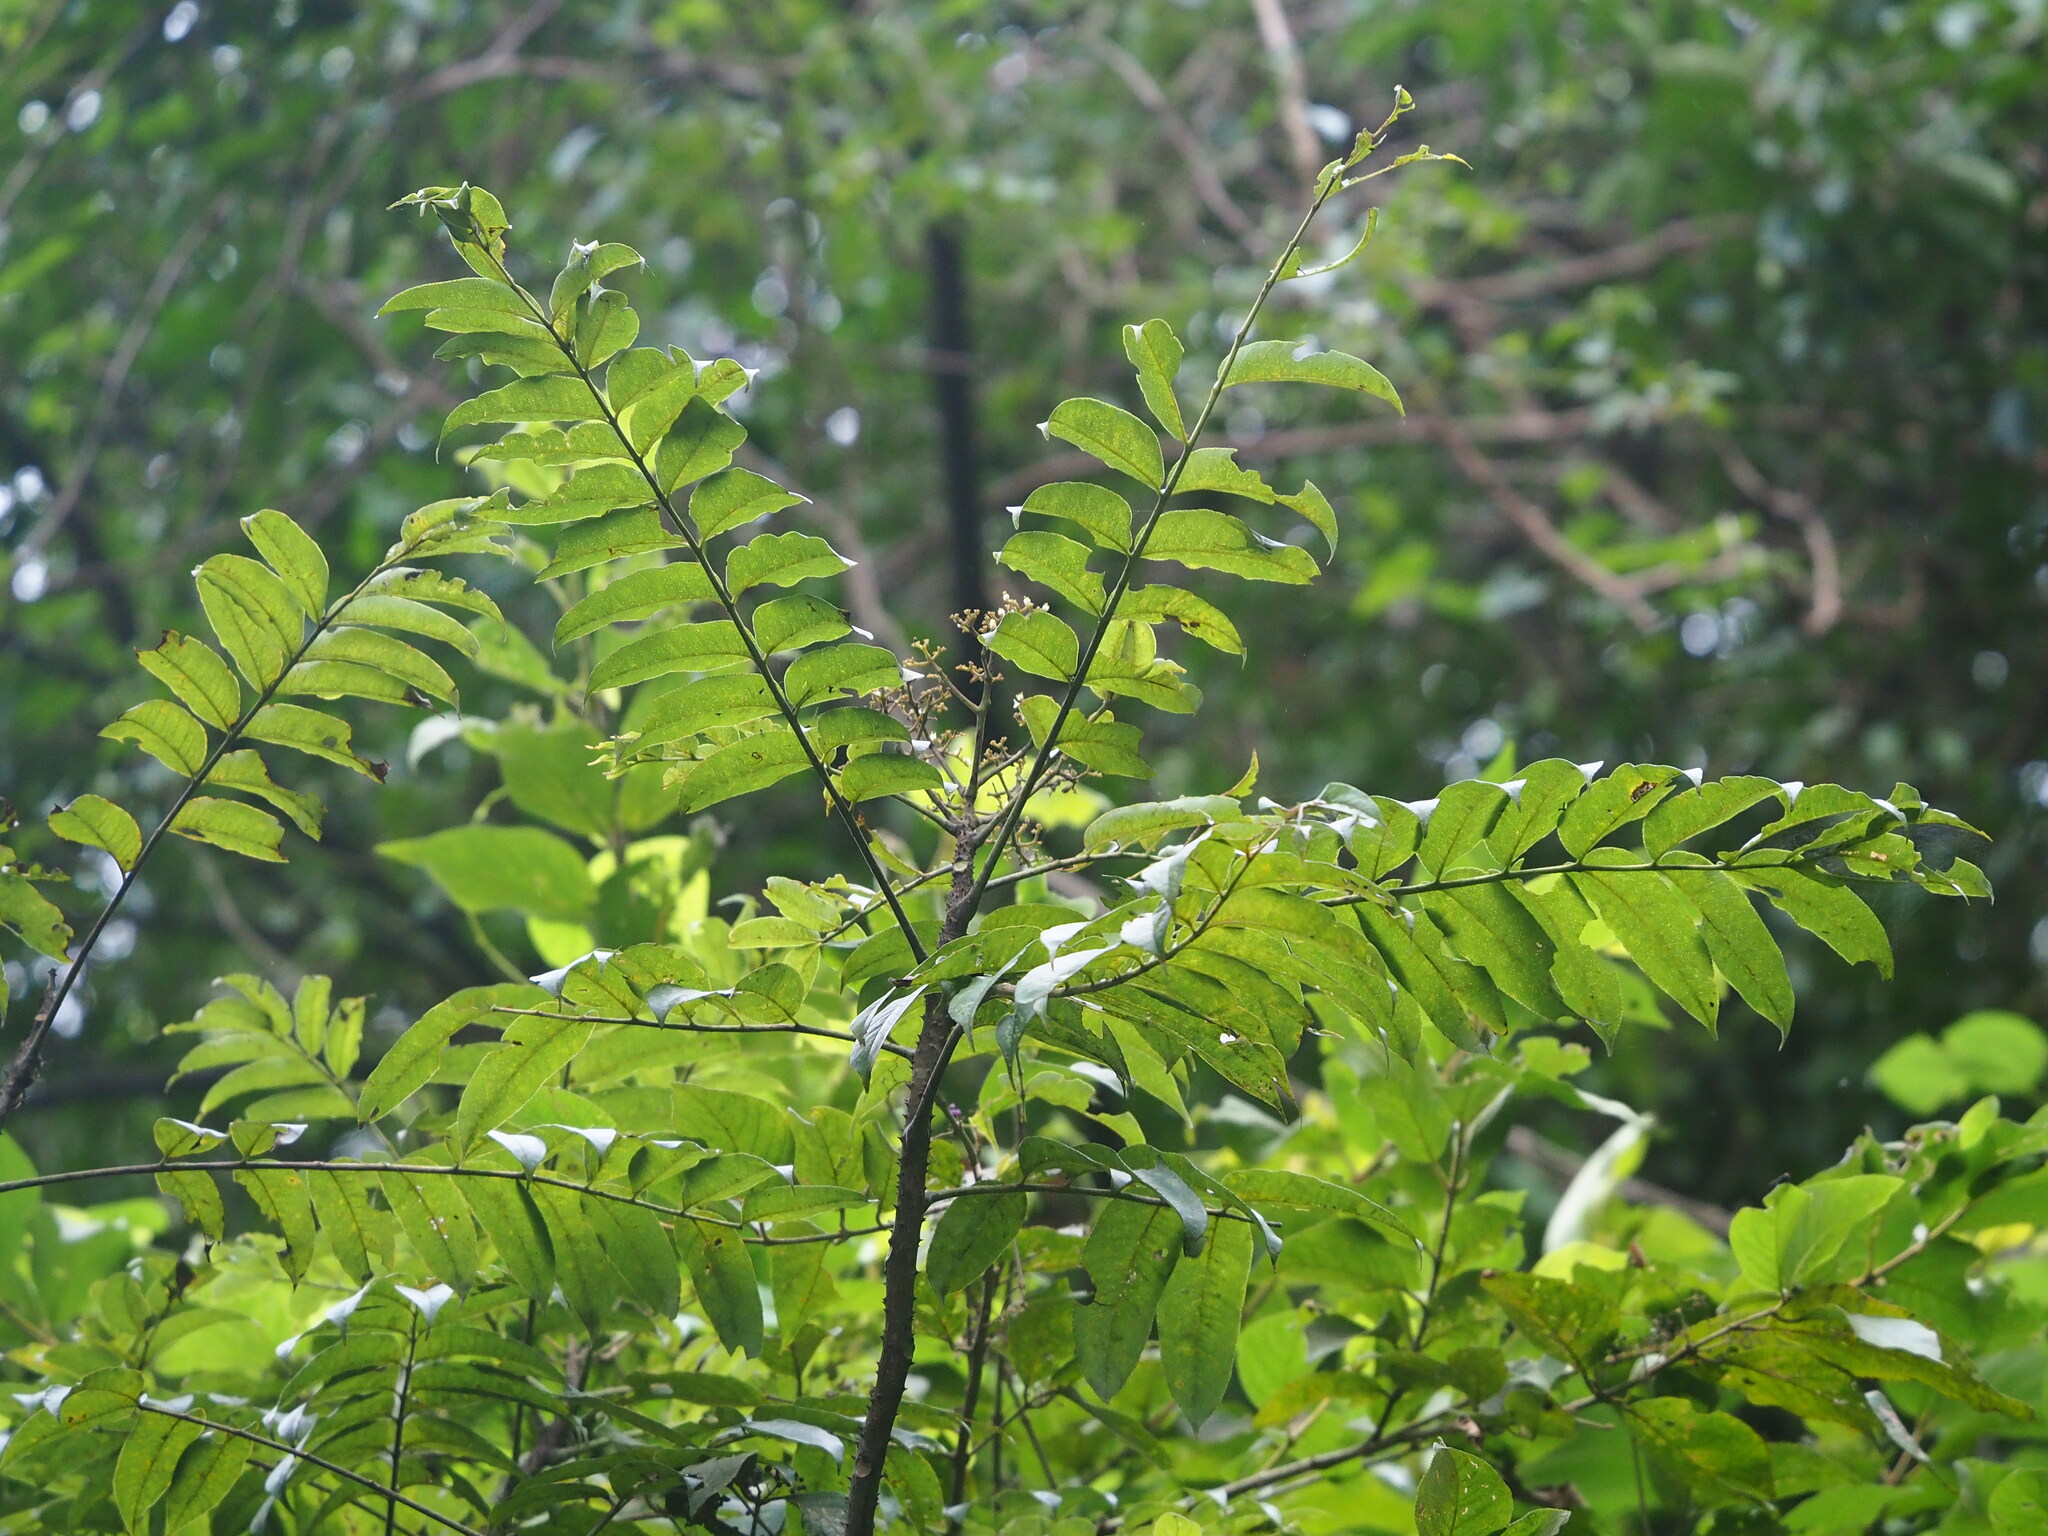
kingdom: Plantae
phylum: Tracheophyta
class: Magnoliopsida
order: Sapindales
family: Rutaceae
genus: Zanthoxylum
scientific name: Zanthoxylum ailanthoides
